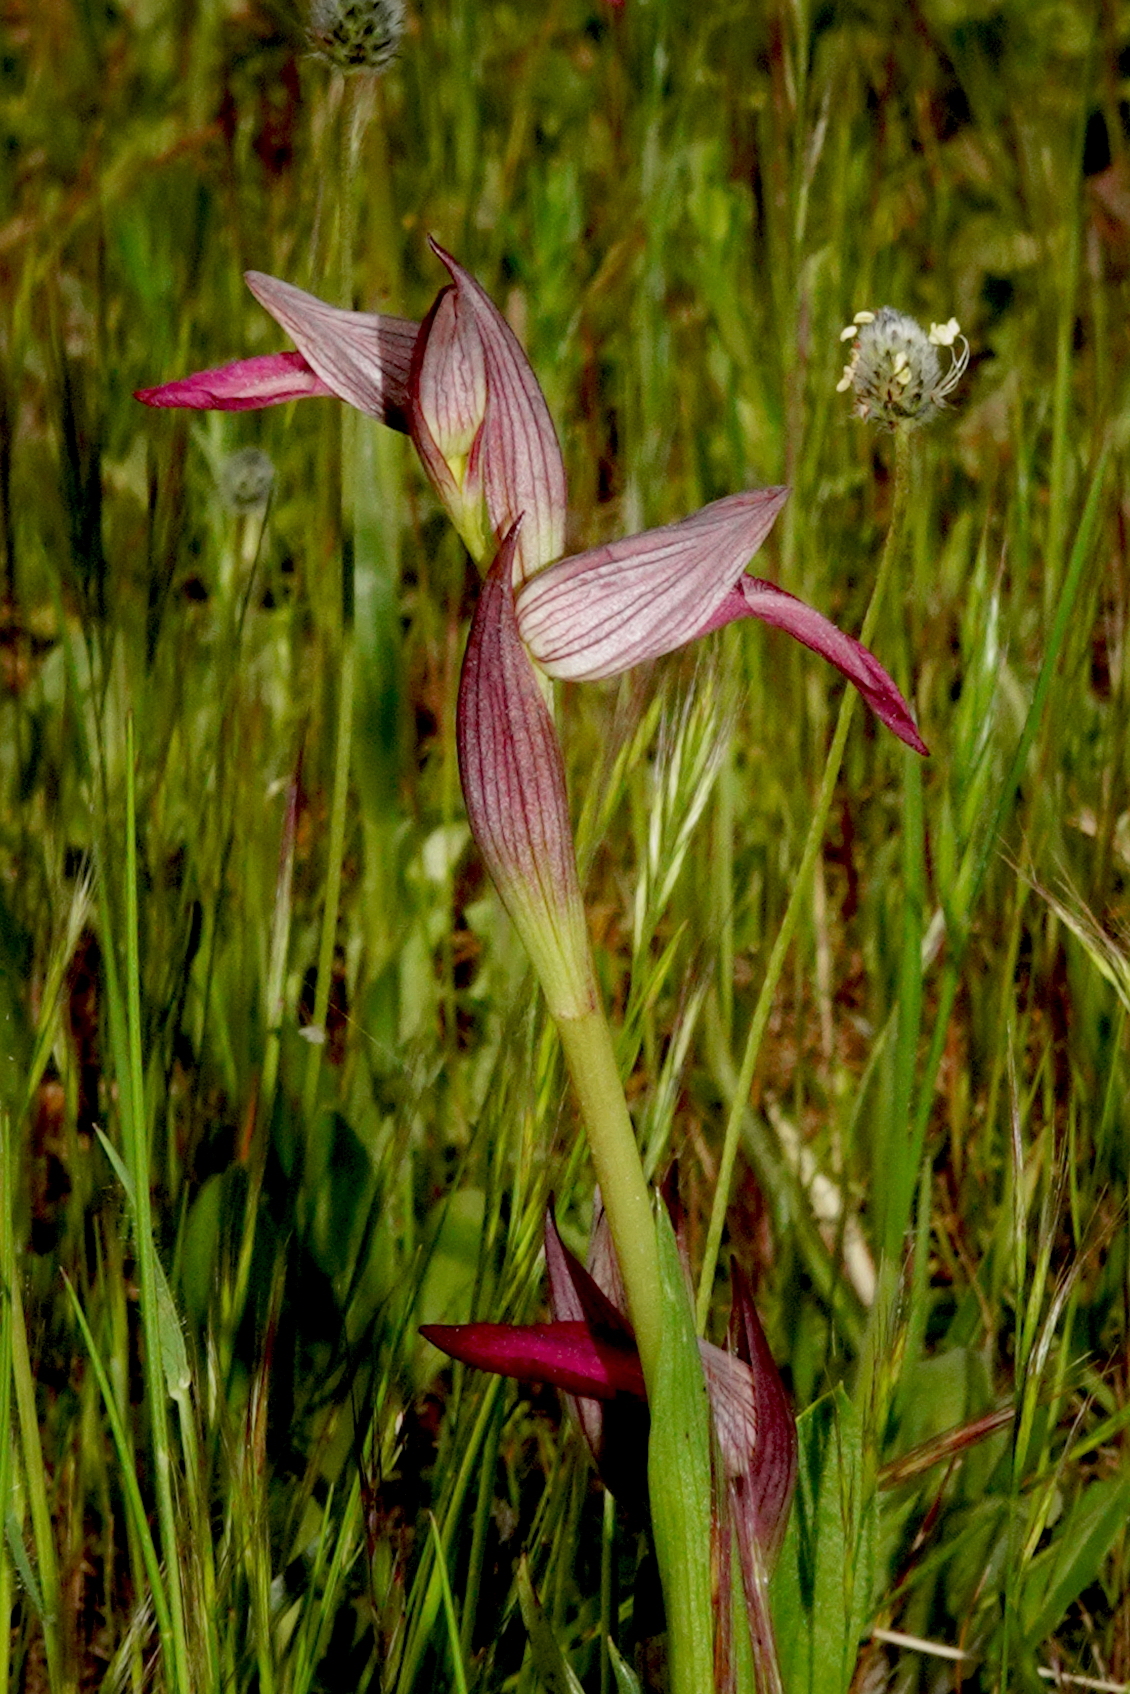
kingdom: Plantae
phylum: Tracheophyta
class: Liliopsida
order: Asparagales
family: Orchidaceae
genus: Serapias
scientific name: Serapias lingua
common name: Tongue-orchid
